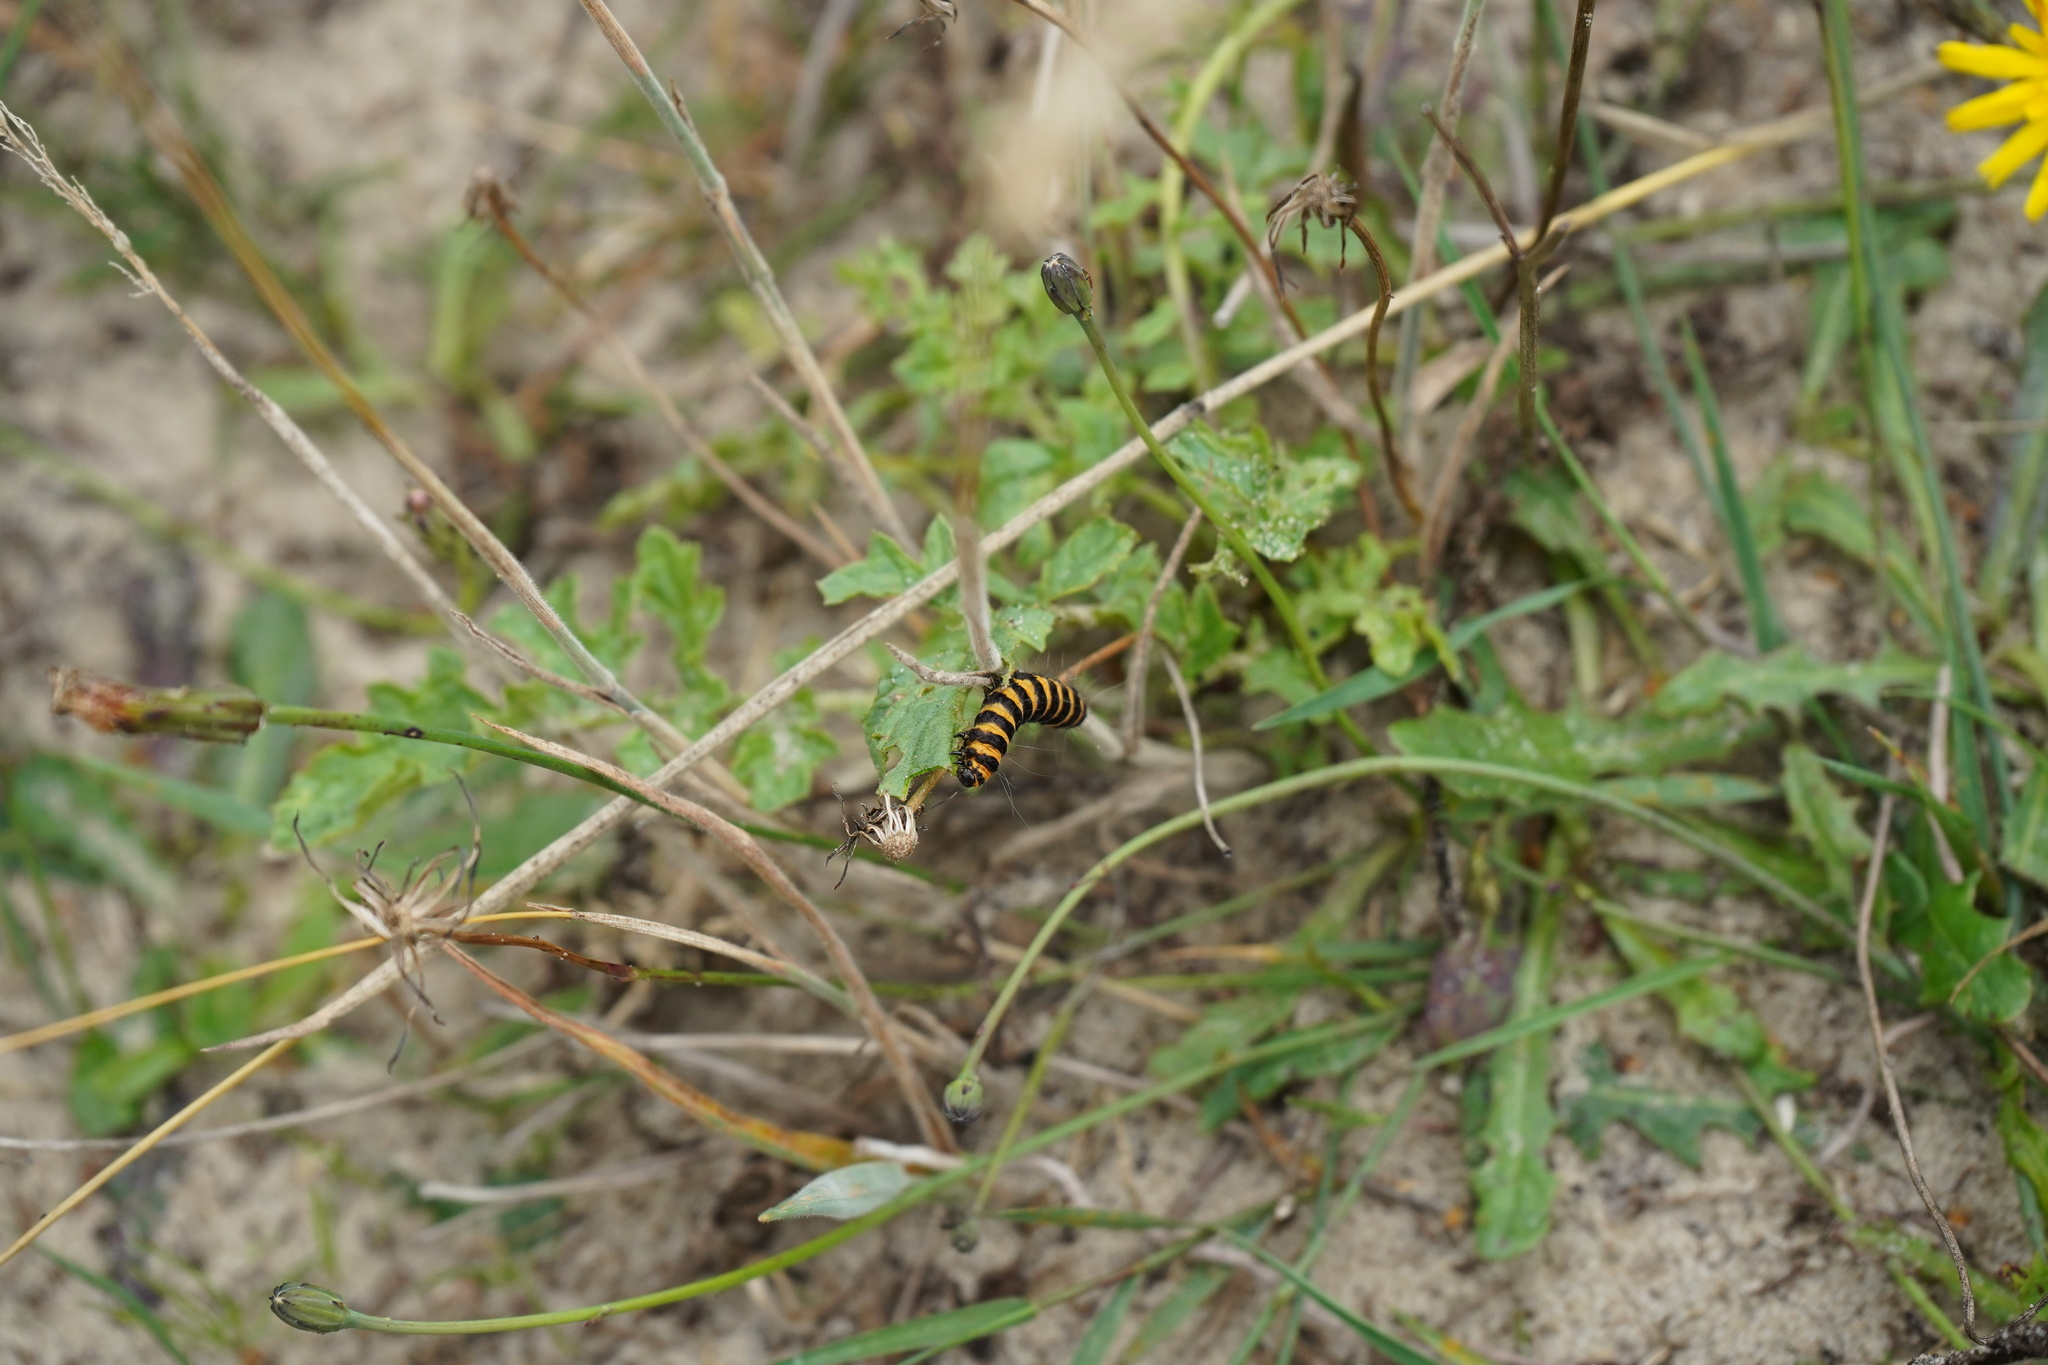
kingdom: Animalia
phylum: Arthropoda
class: Insecta
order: Lepidoptera
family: Erebidae
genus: Tyria
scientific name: Tyria jacobaeae
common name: Cinnabar
